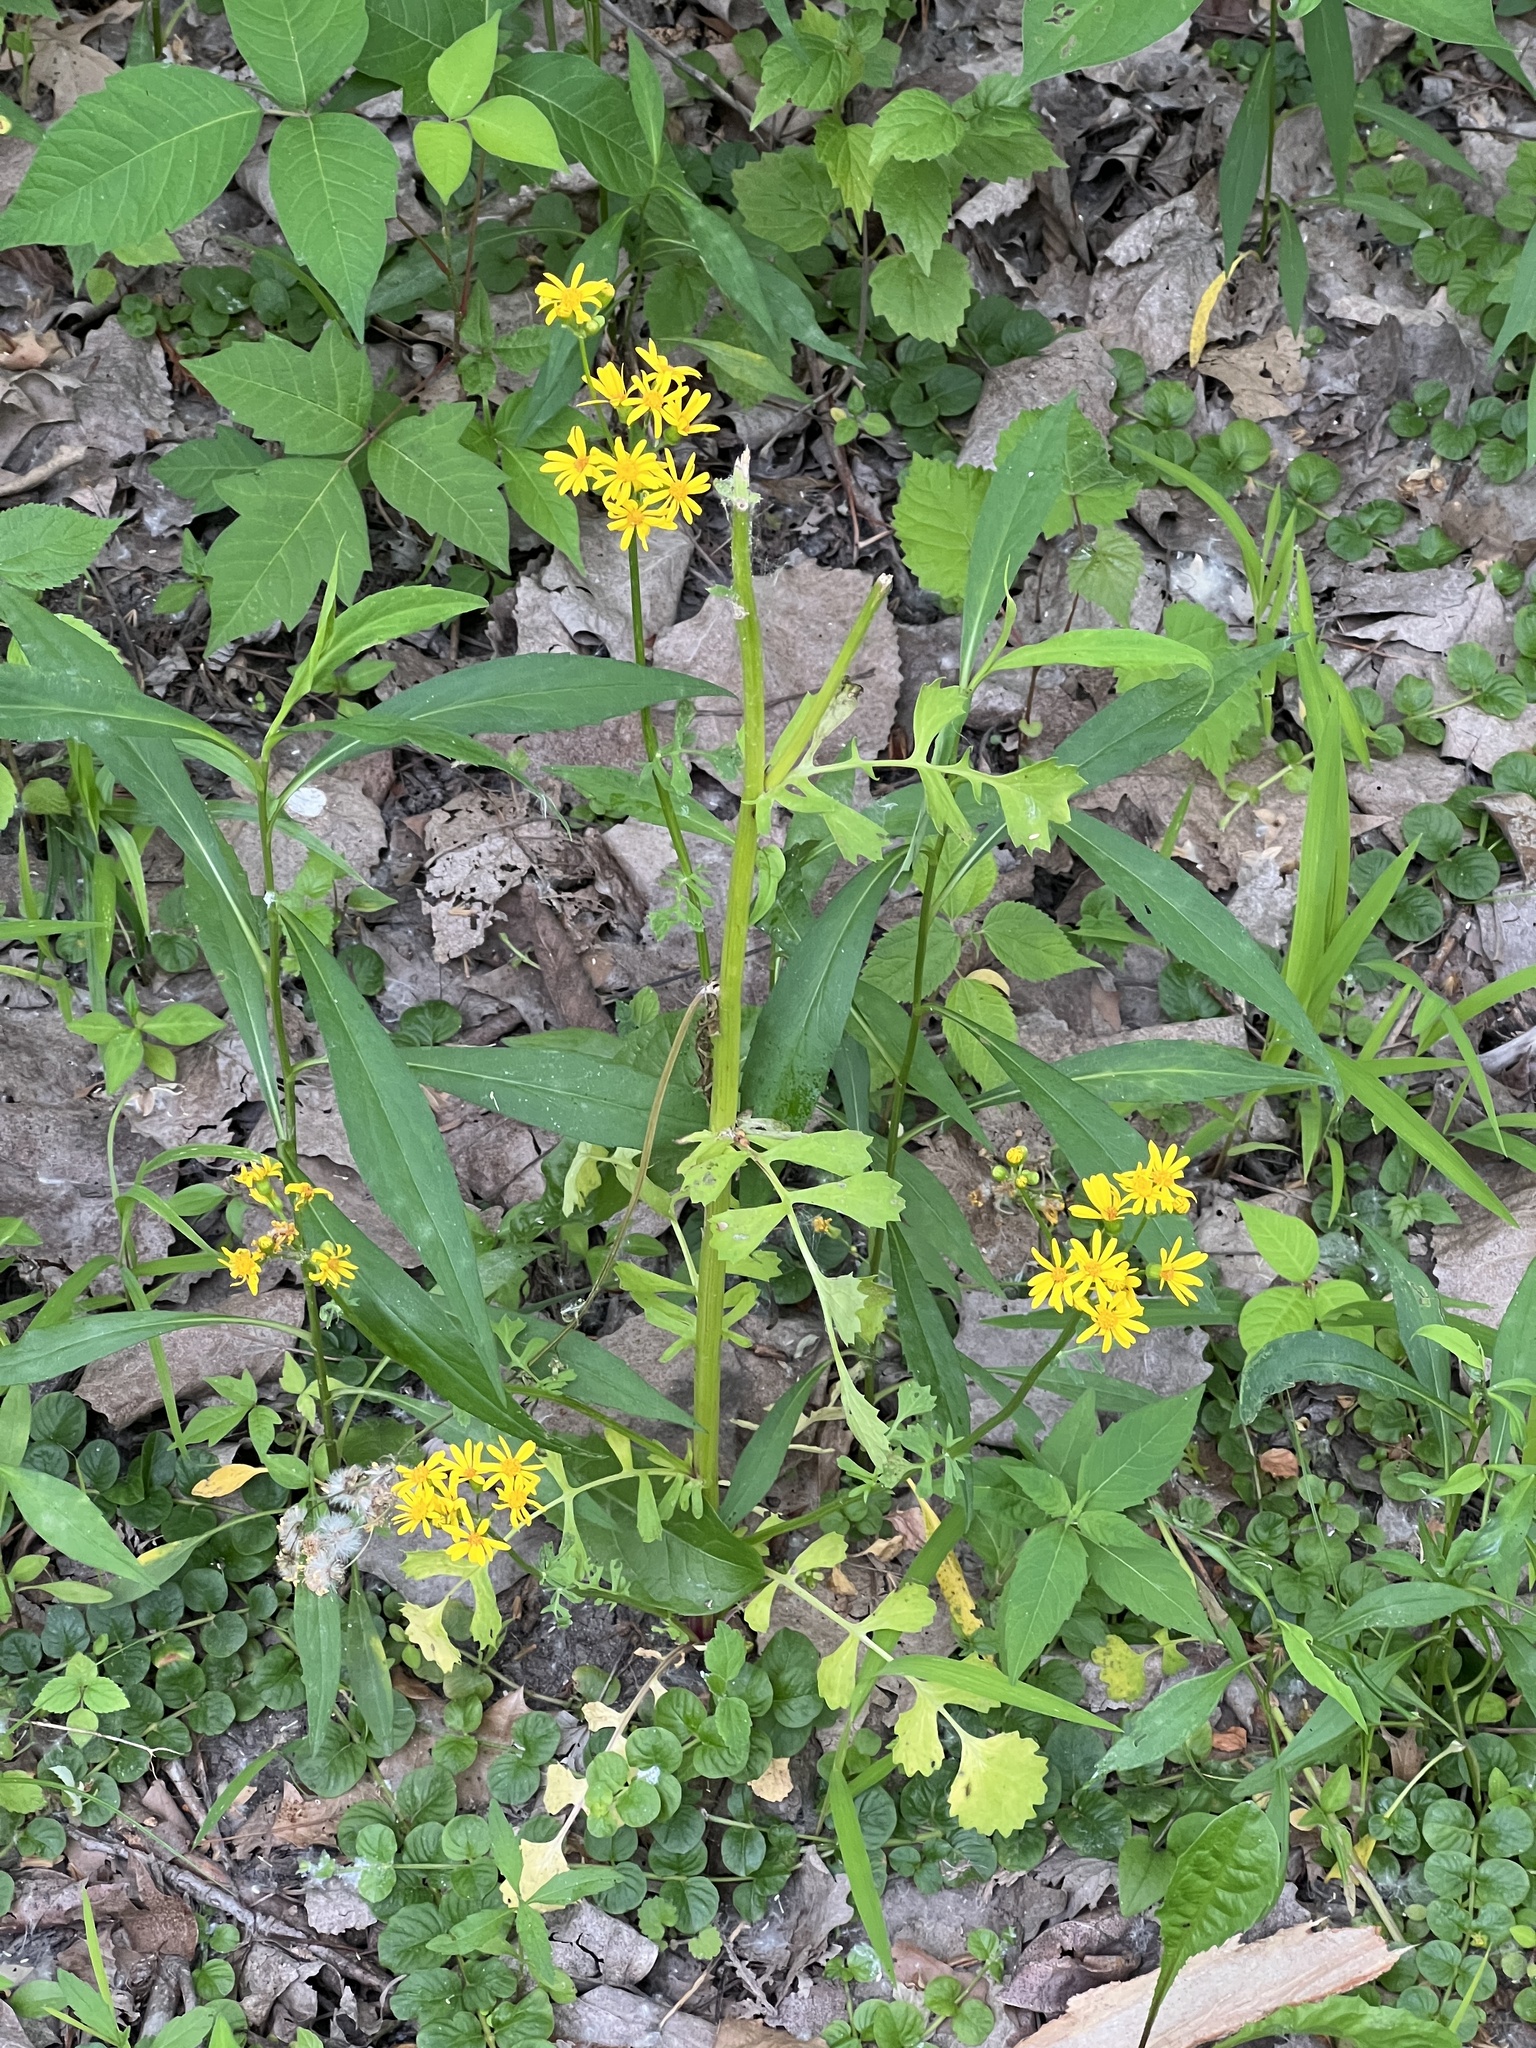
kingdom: Plantae
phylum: Tracheophyta
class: Magnoliopsida
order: Asterales
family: Asteraceae
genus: Packera
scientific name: Packera glabella
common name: Butterweed
